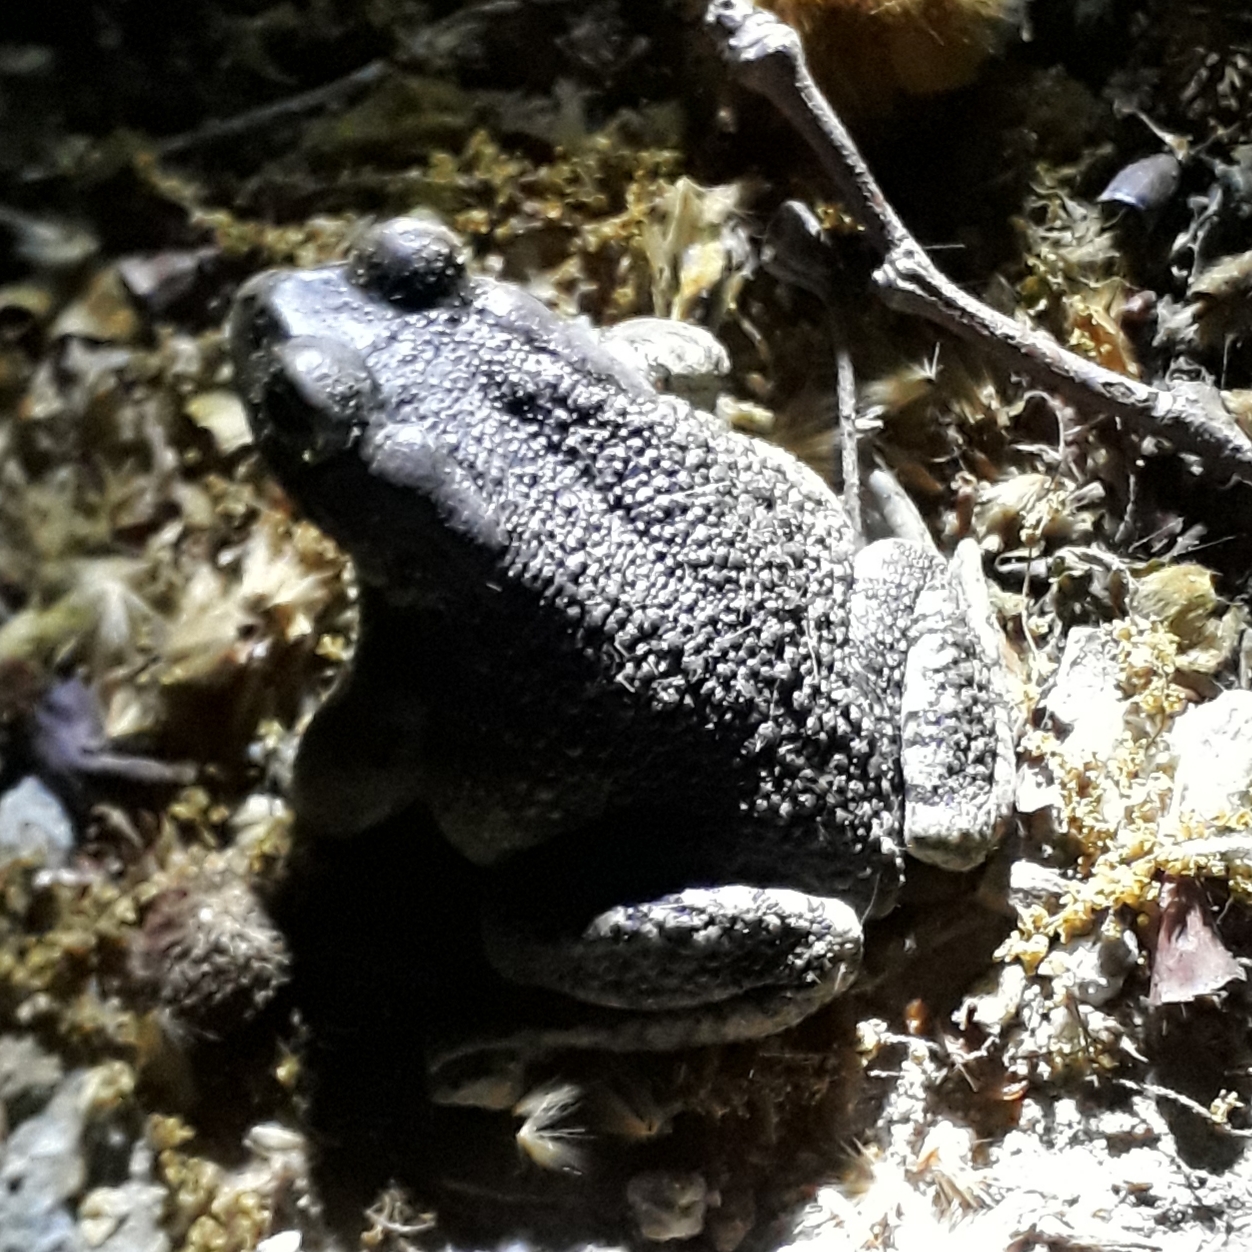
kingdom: Animalia
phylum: Chordata
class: Amphibia
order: Anura
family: Bufonidae
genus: Sclerophrys
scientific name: Sclerophrys capensis
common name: Ranger’s toad
